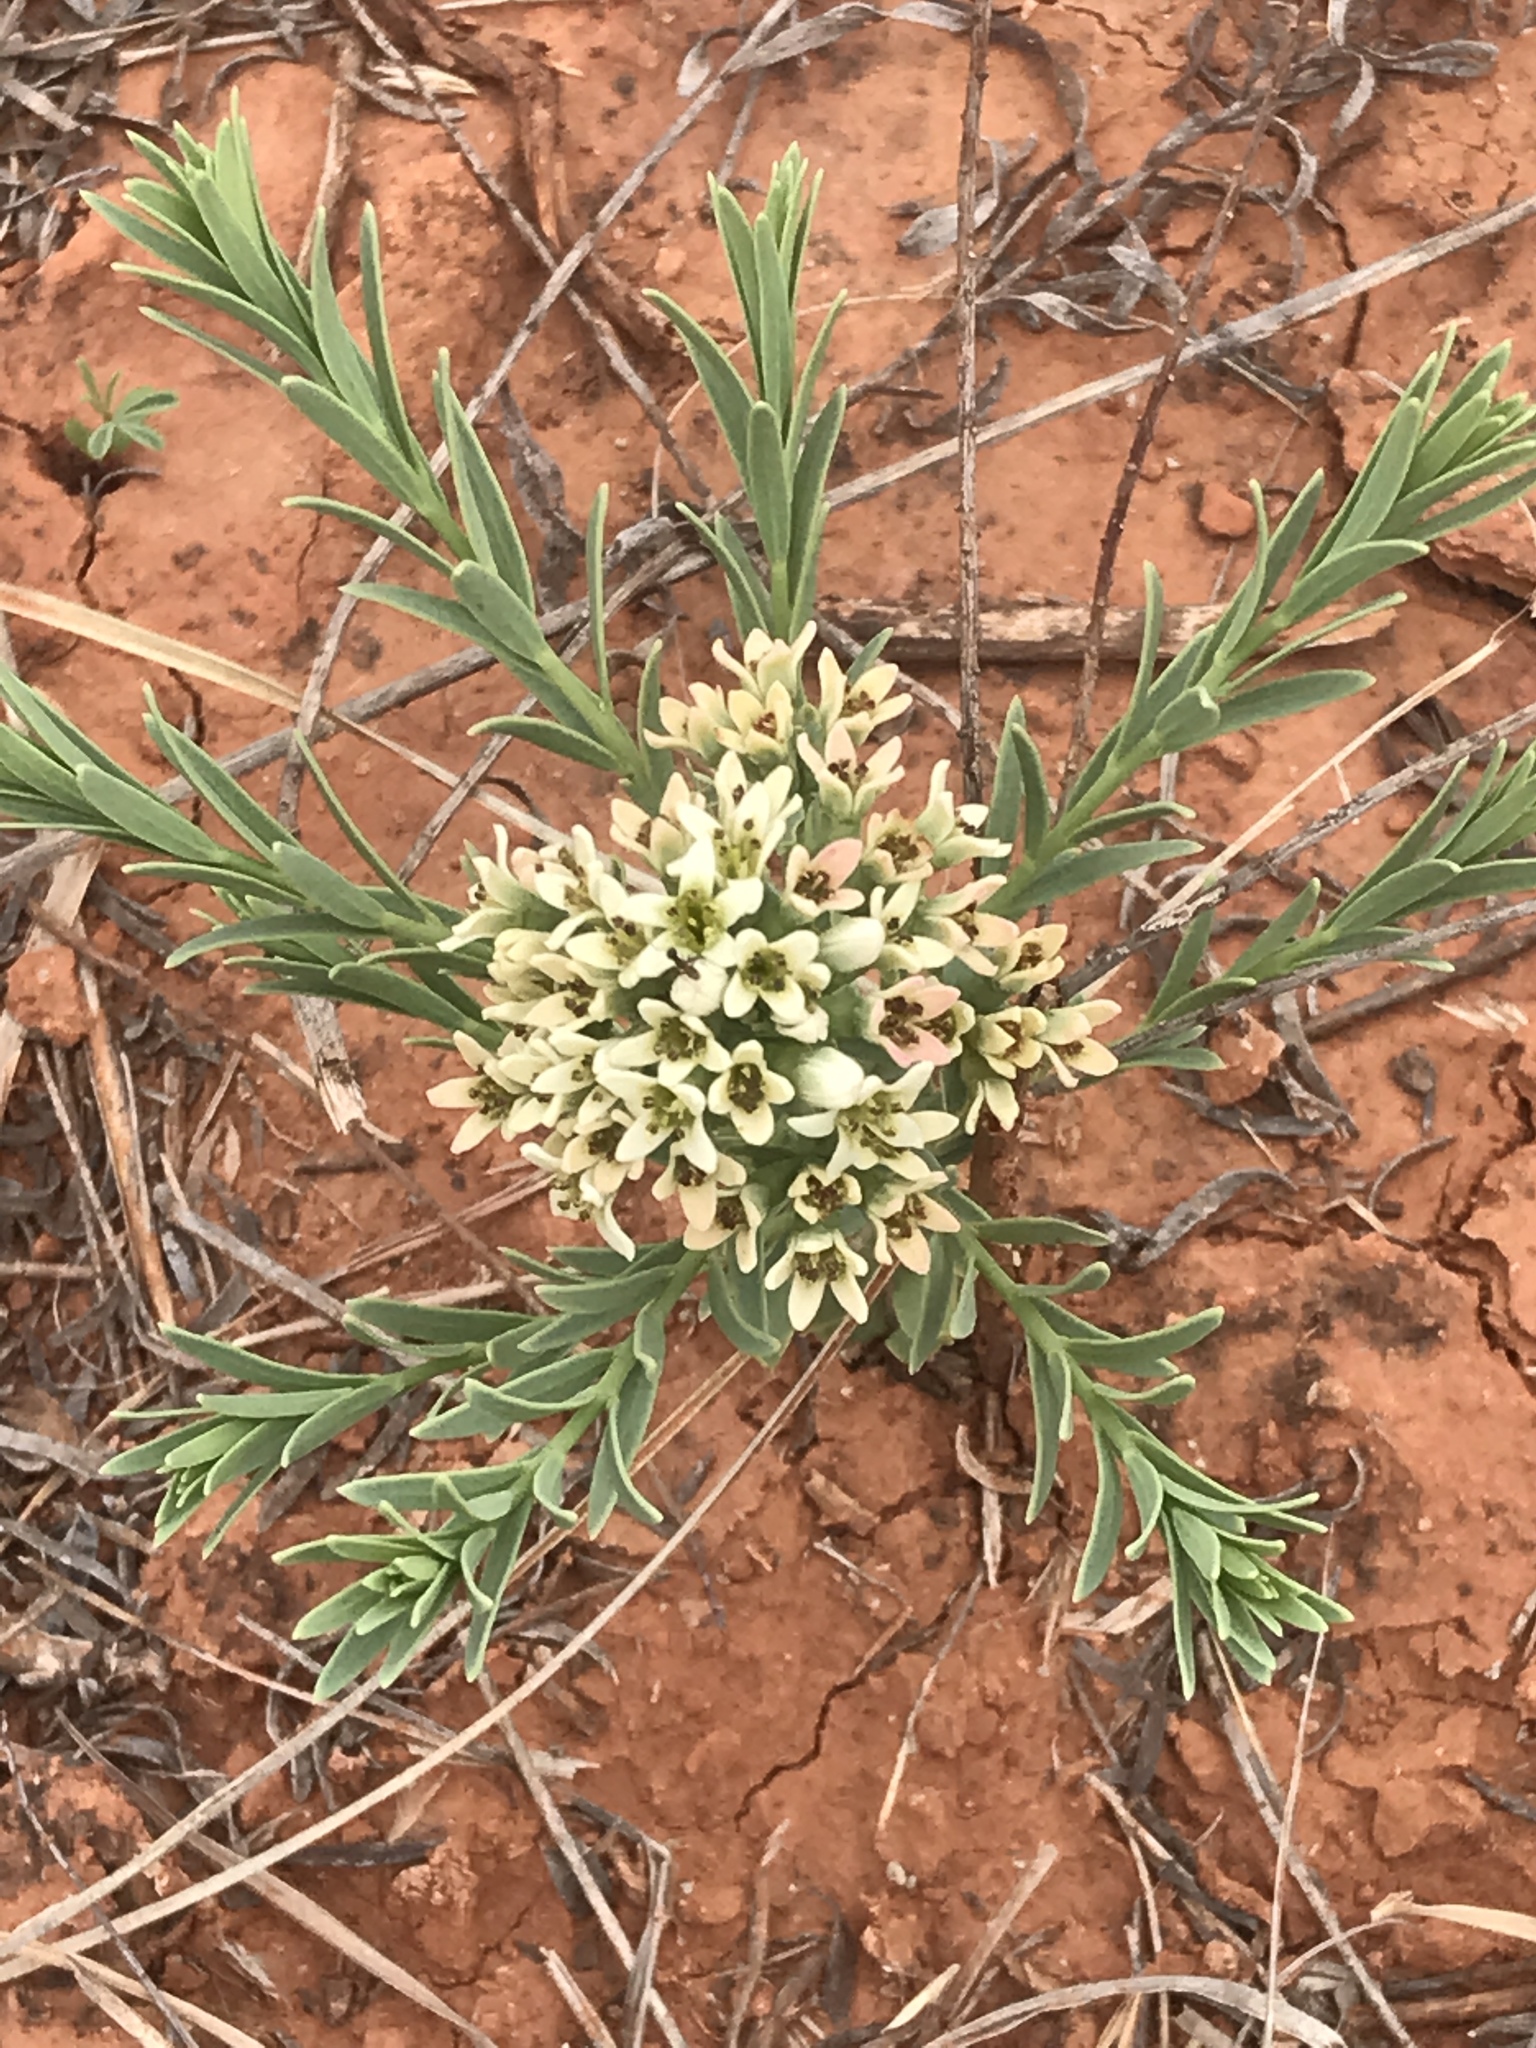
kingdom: Plantae
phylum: Tracheophyta
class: Magnoliopsida
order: Santalales
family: Comandraceae
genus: Comandra
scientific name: Comandra umbellata
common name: Bastard toadflax
